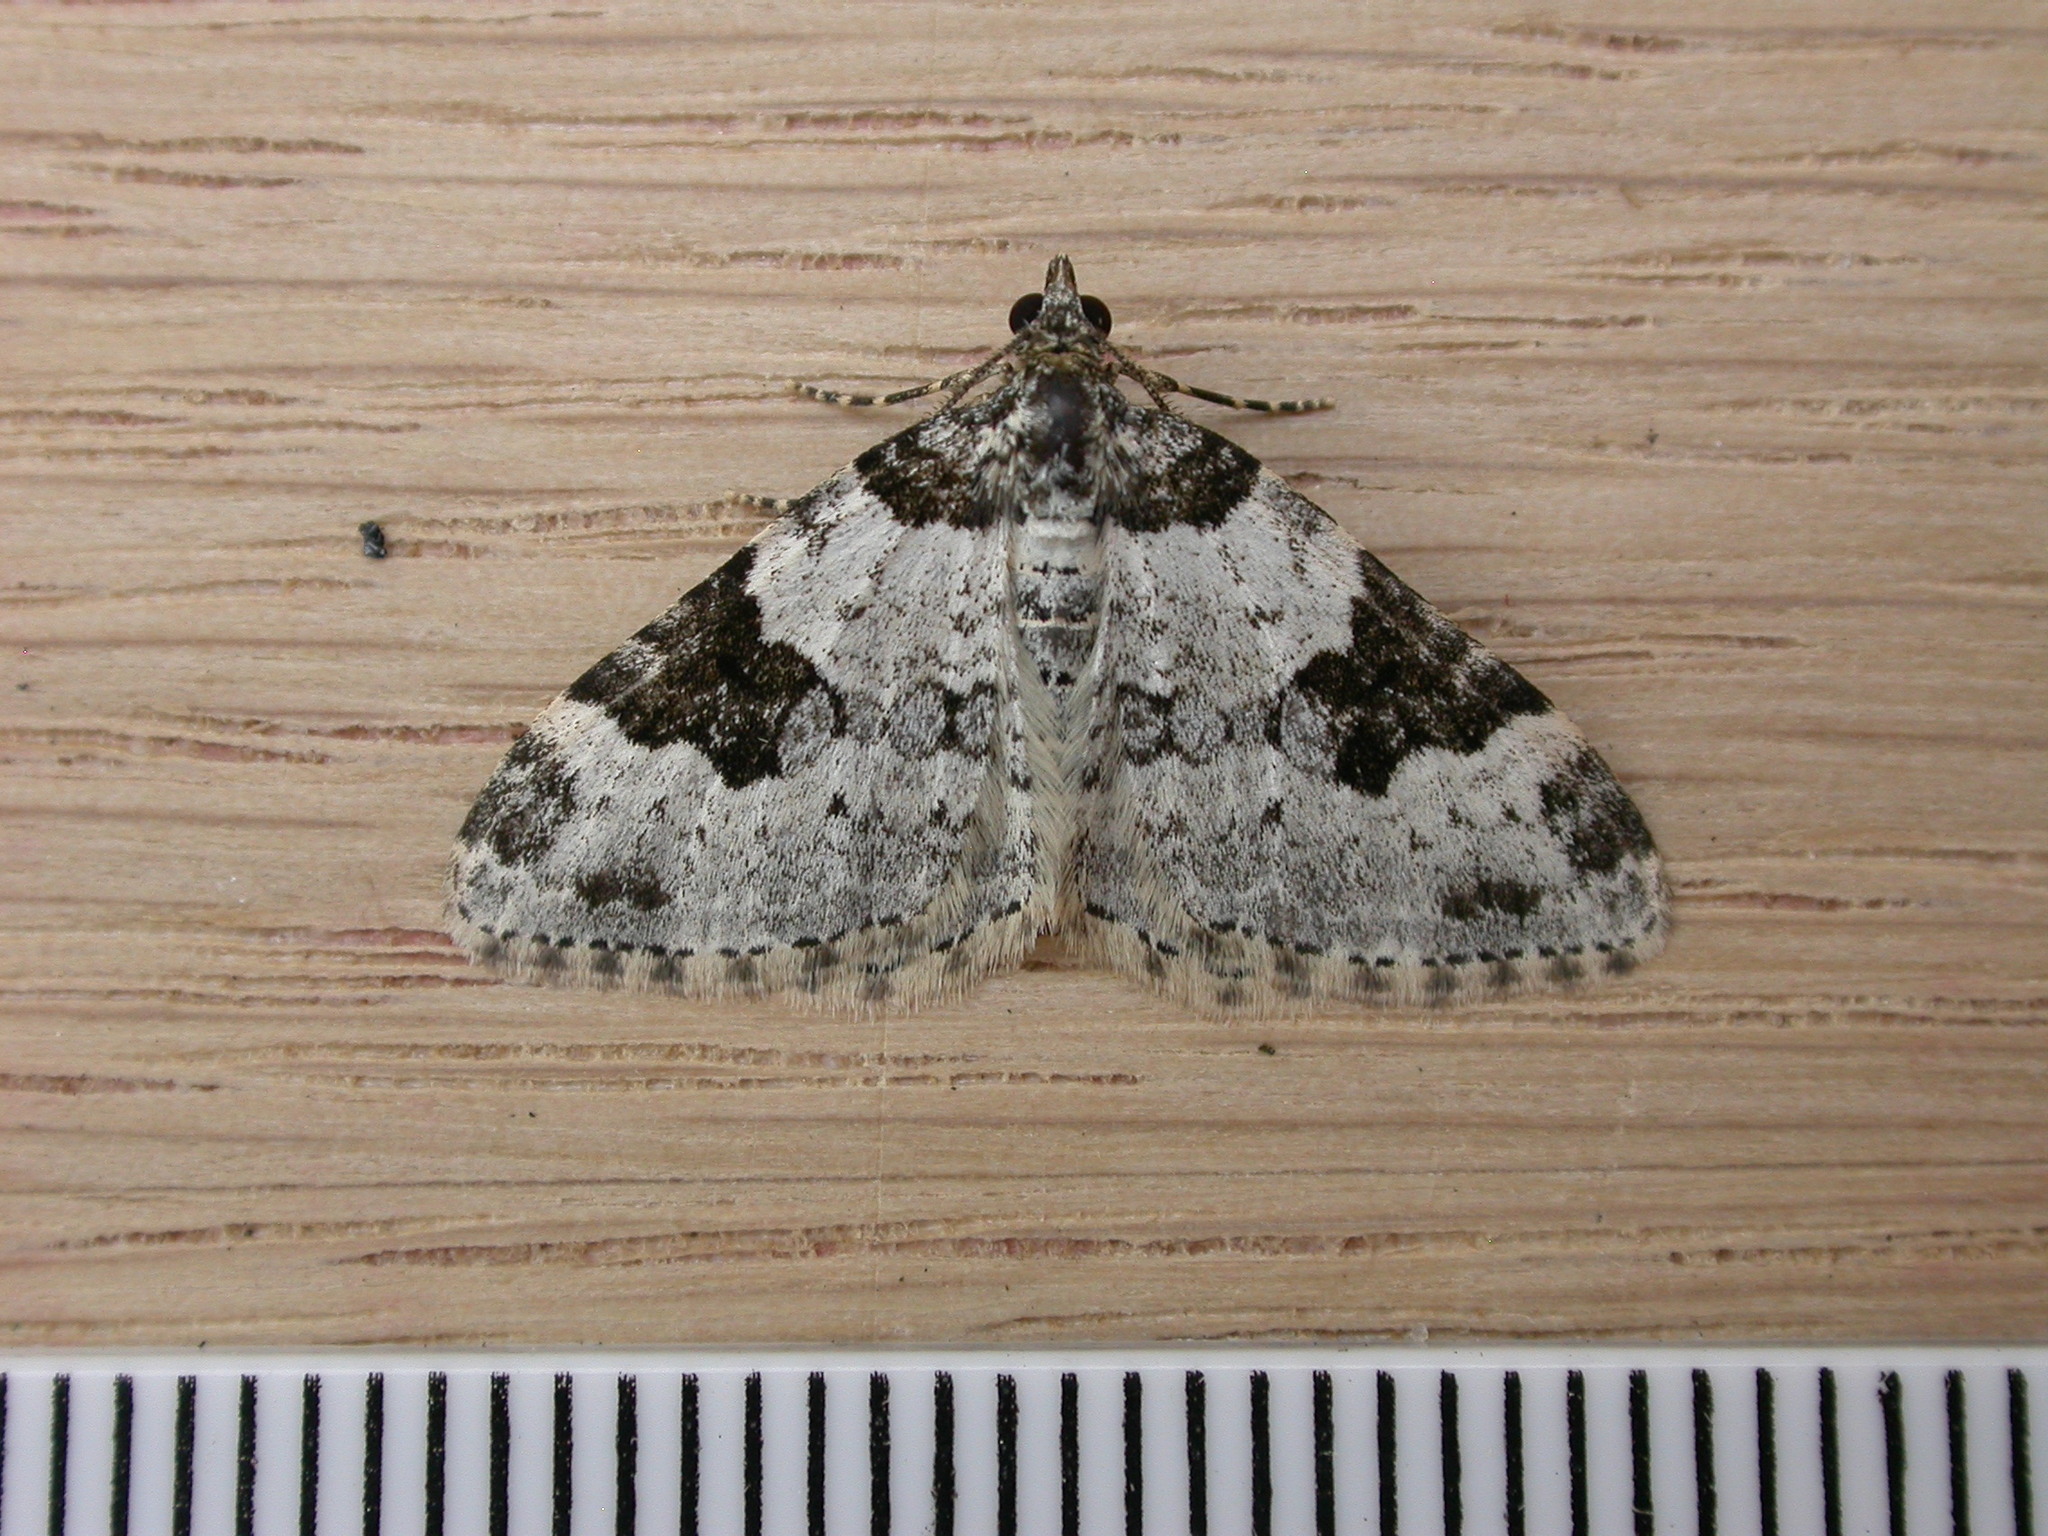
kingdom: Animalia
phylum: Arthropoda
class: Insecta
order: Lepidoptera
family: Geometridae
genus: Xanthorhoe
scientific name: Xanthorhoe fluctuata
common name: Garden carpet
